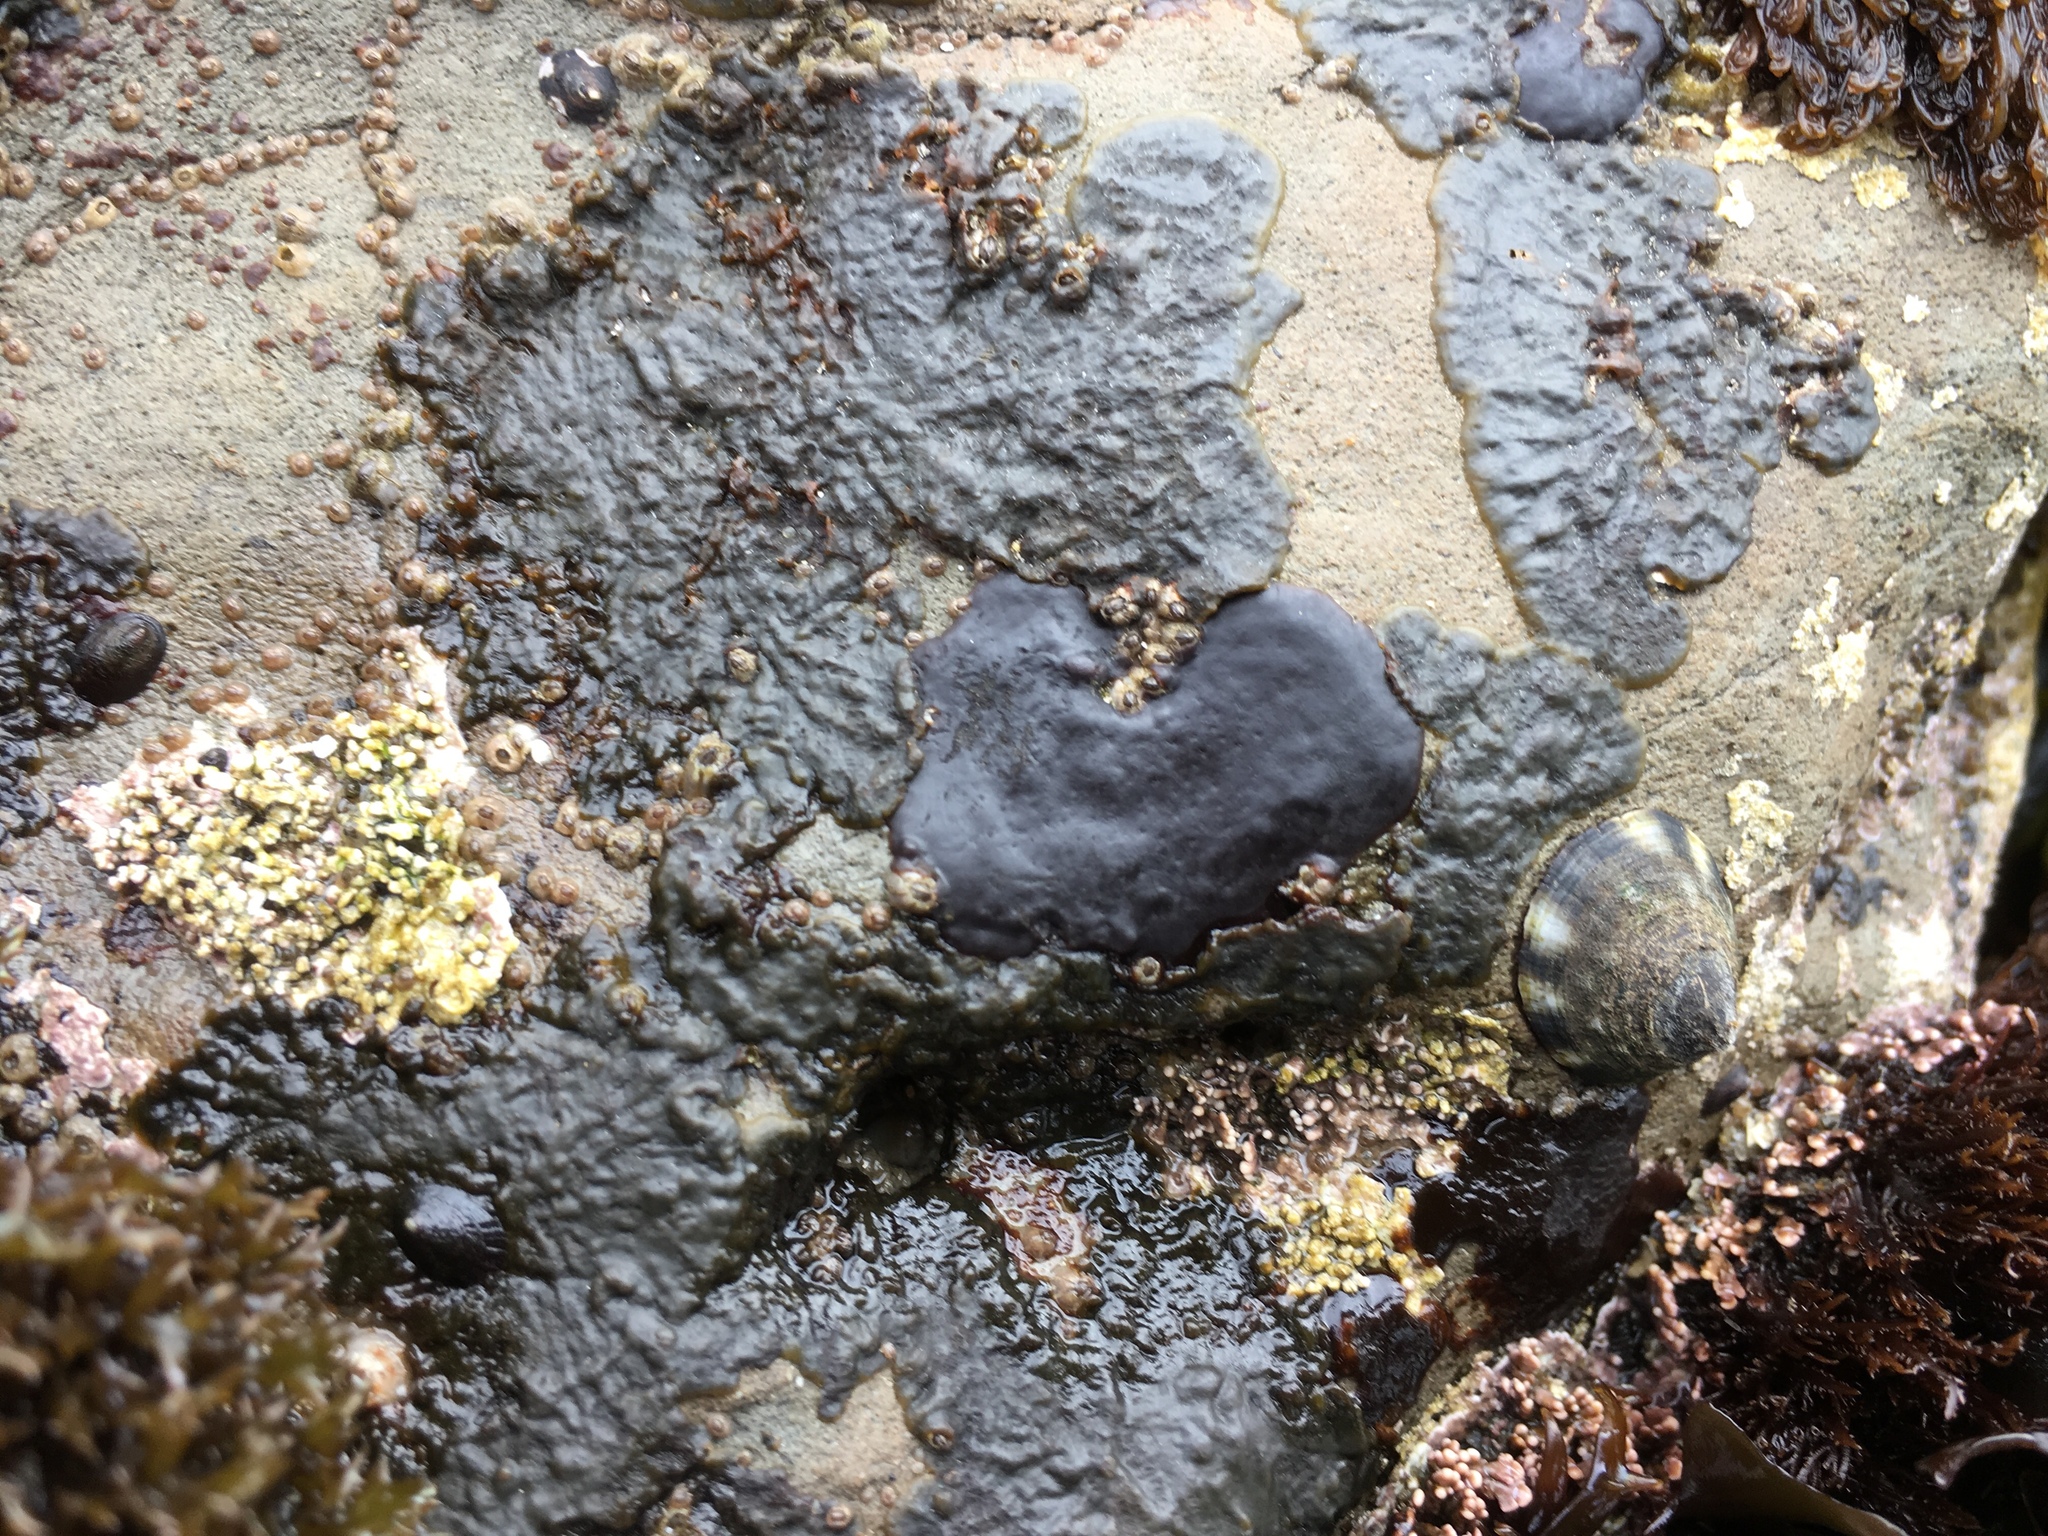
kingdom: Plantae
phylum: Rhodophyta
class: Florideophyceae
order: Gigartinales
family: Phyllophoraceae
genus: Mastocarpus
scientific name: Mastocarpus papillatus
